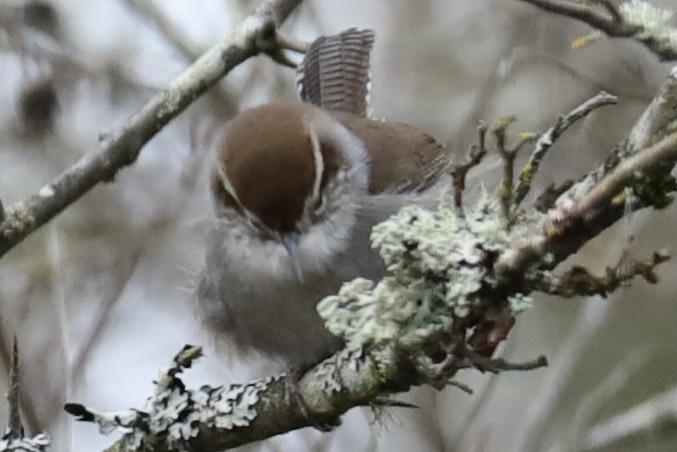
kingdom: Animalia
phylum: Chordata
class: Aves
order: Passeriformes
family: Troglodytidae
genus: Thryomanes
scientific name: Thryomanes bewickii
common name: Bewick's wren
